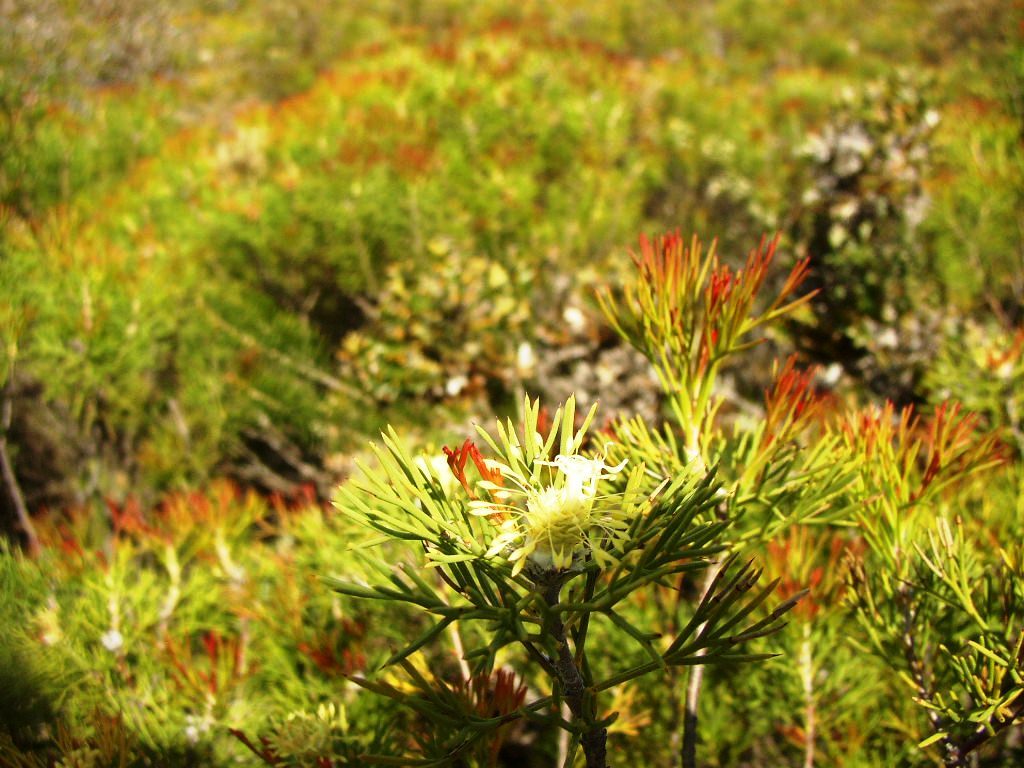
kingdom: Plantae
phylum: Tracheophyta
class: Magnoliopsida
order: Proteales
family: Proteaceae
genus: Petrophile
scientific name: Petrophile seminuda
